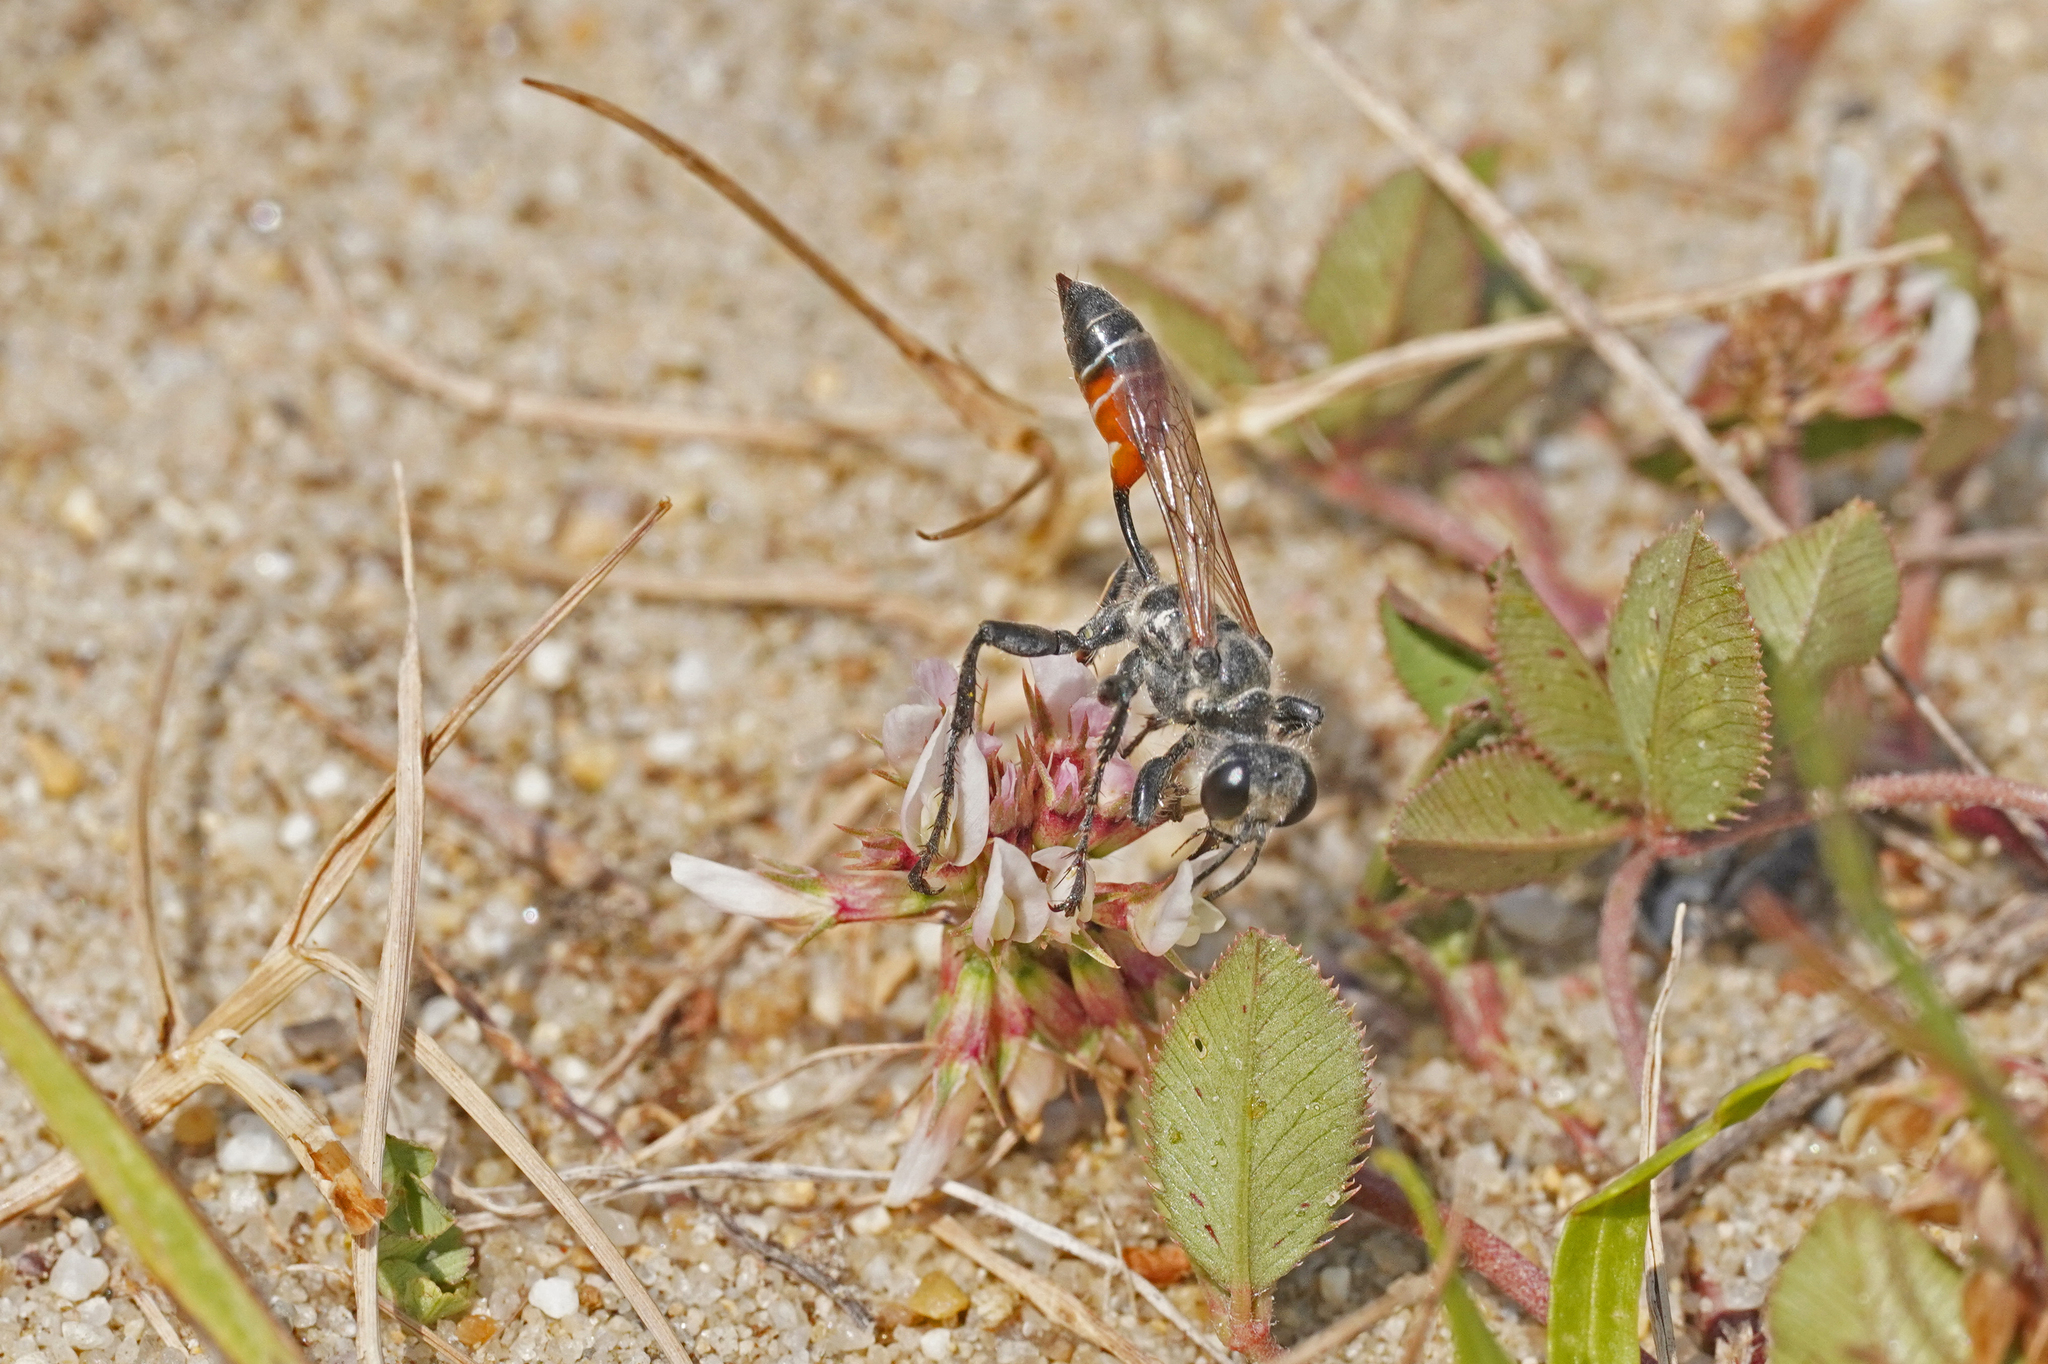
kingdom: Animalia
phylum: Arthropoda
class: Insecta
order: Hymenoptera
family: Sphecidae
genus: Prionyx
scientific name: Prionyx kirbii
